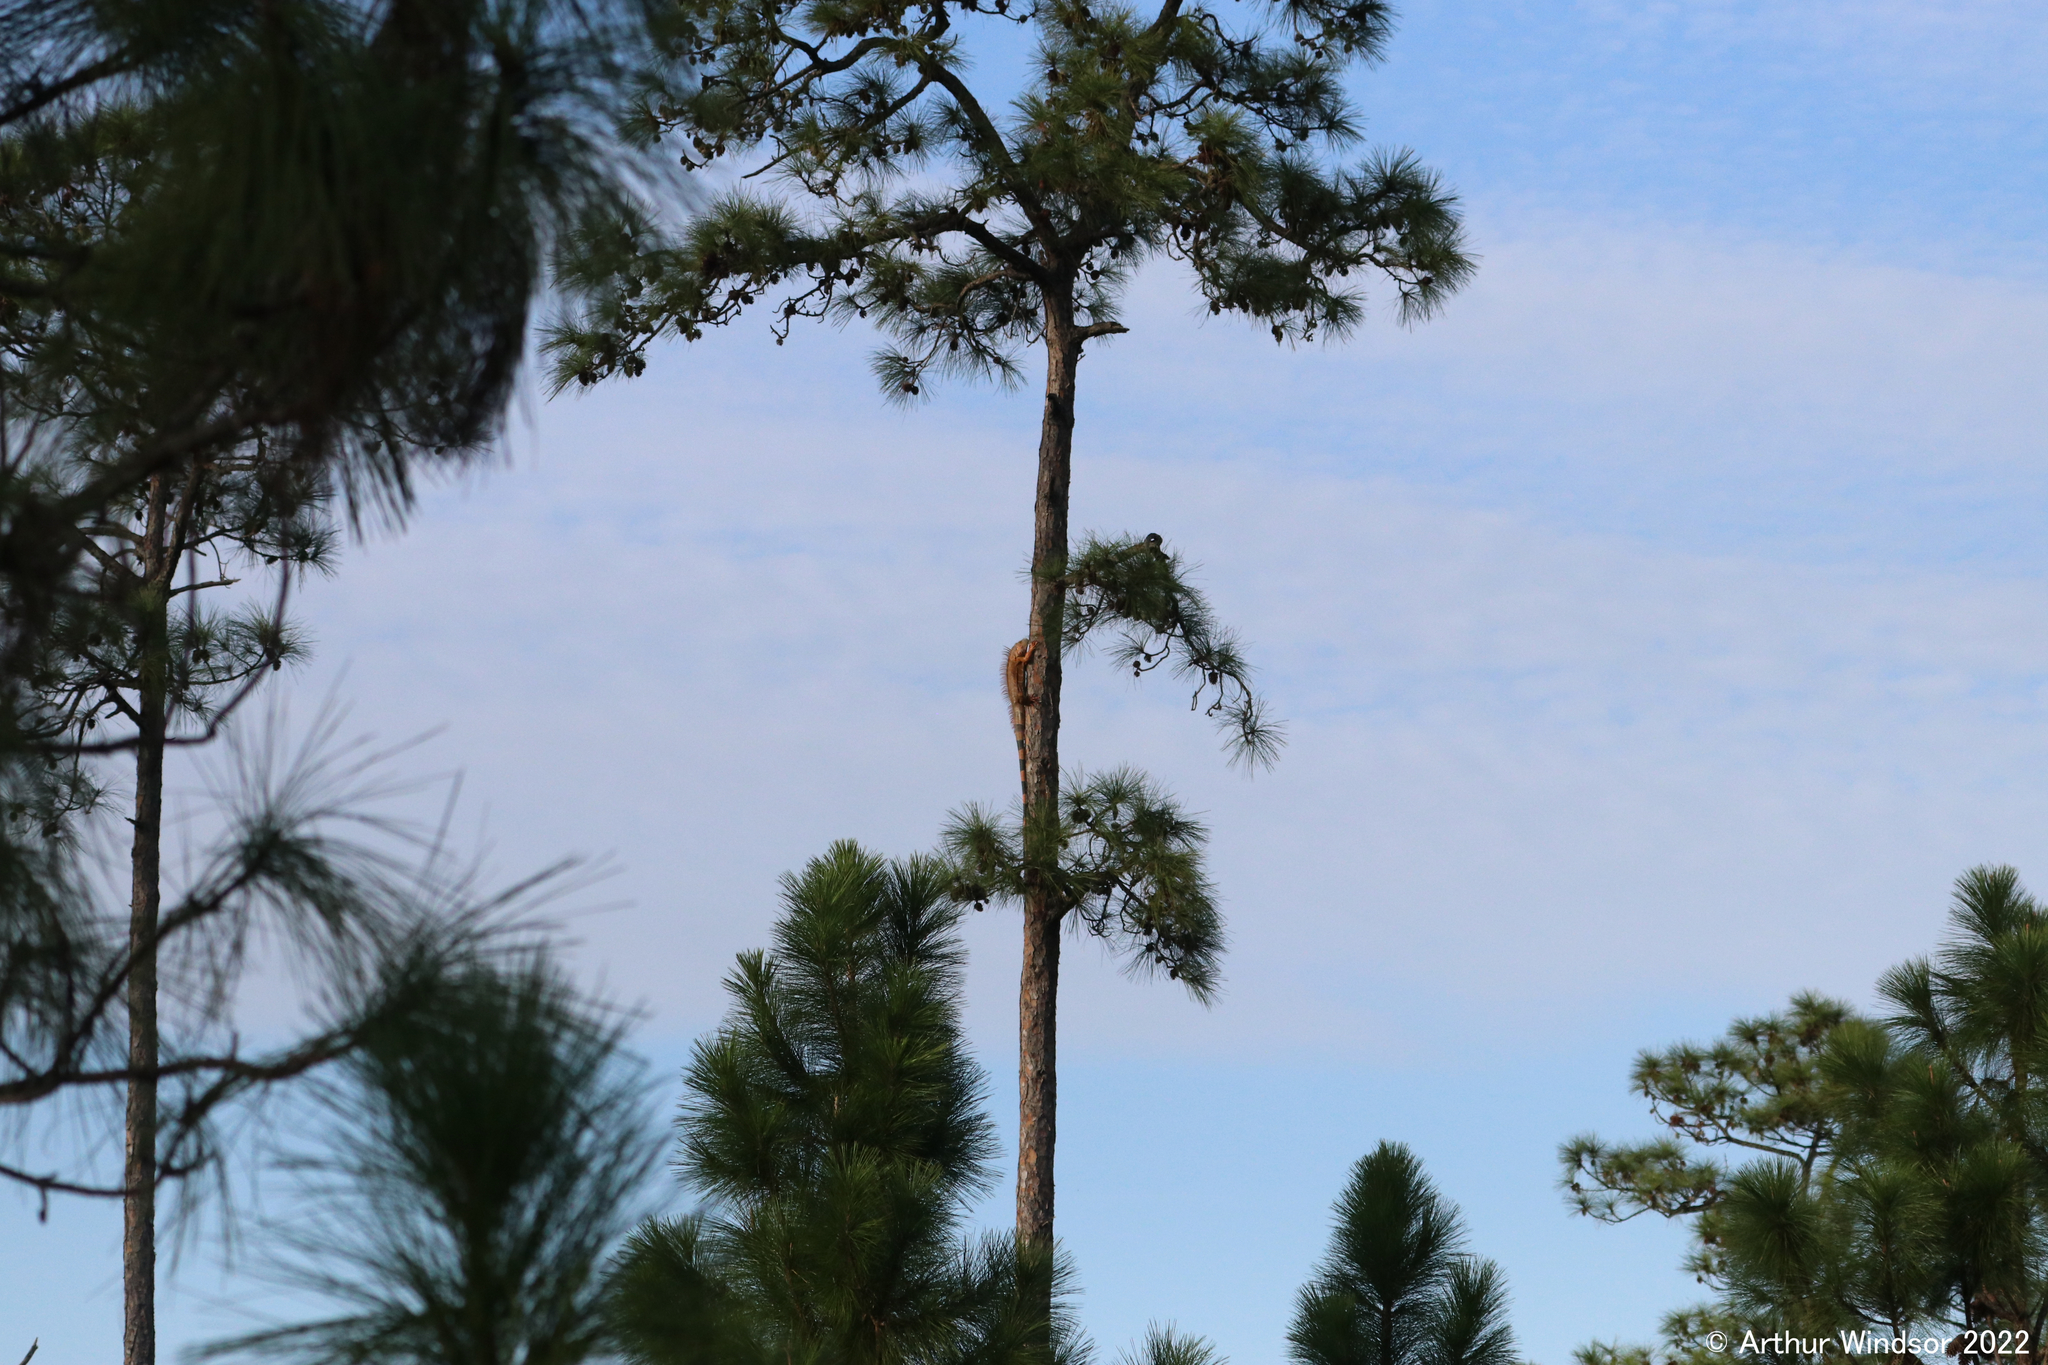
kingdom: Animalia
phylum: Chordata
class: Squamata
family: Iguanidae
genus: Iguana
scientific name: Iguana iguana
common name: Green iguana
